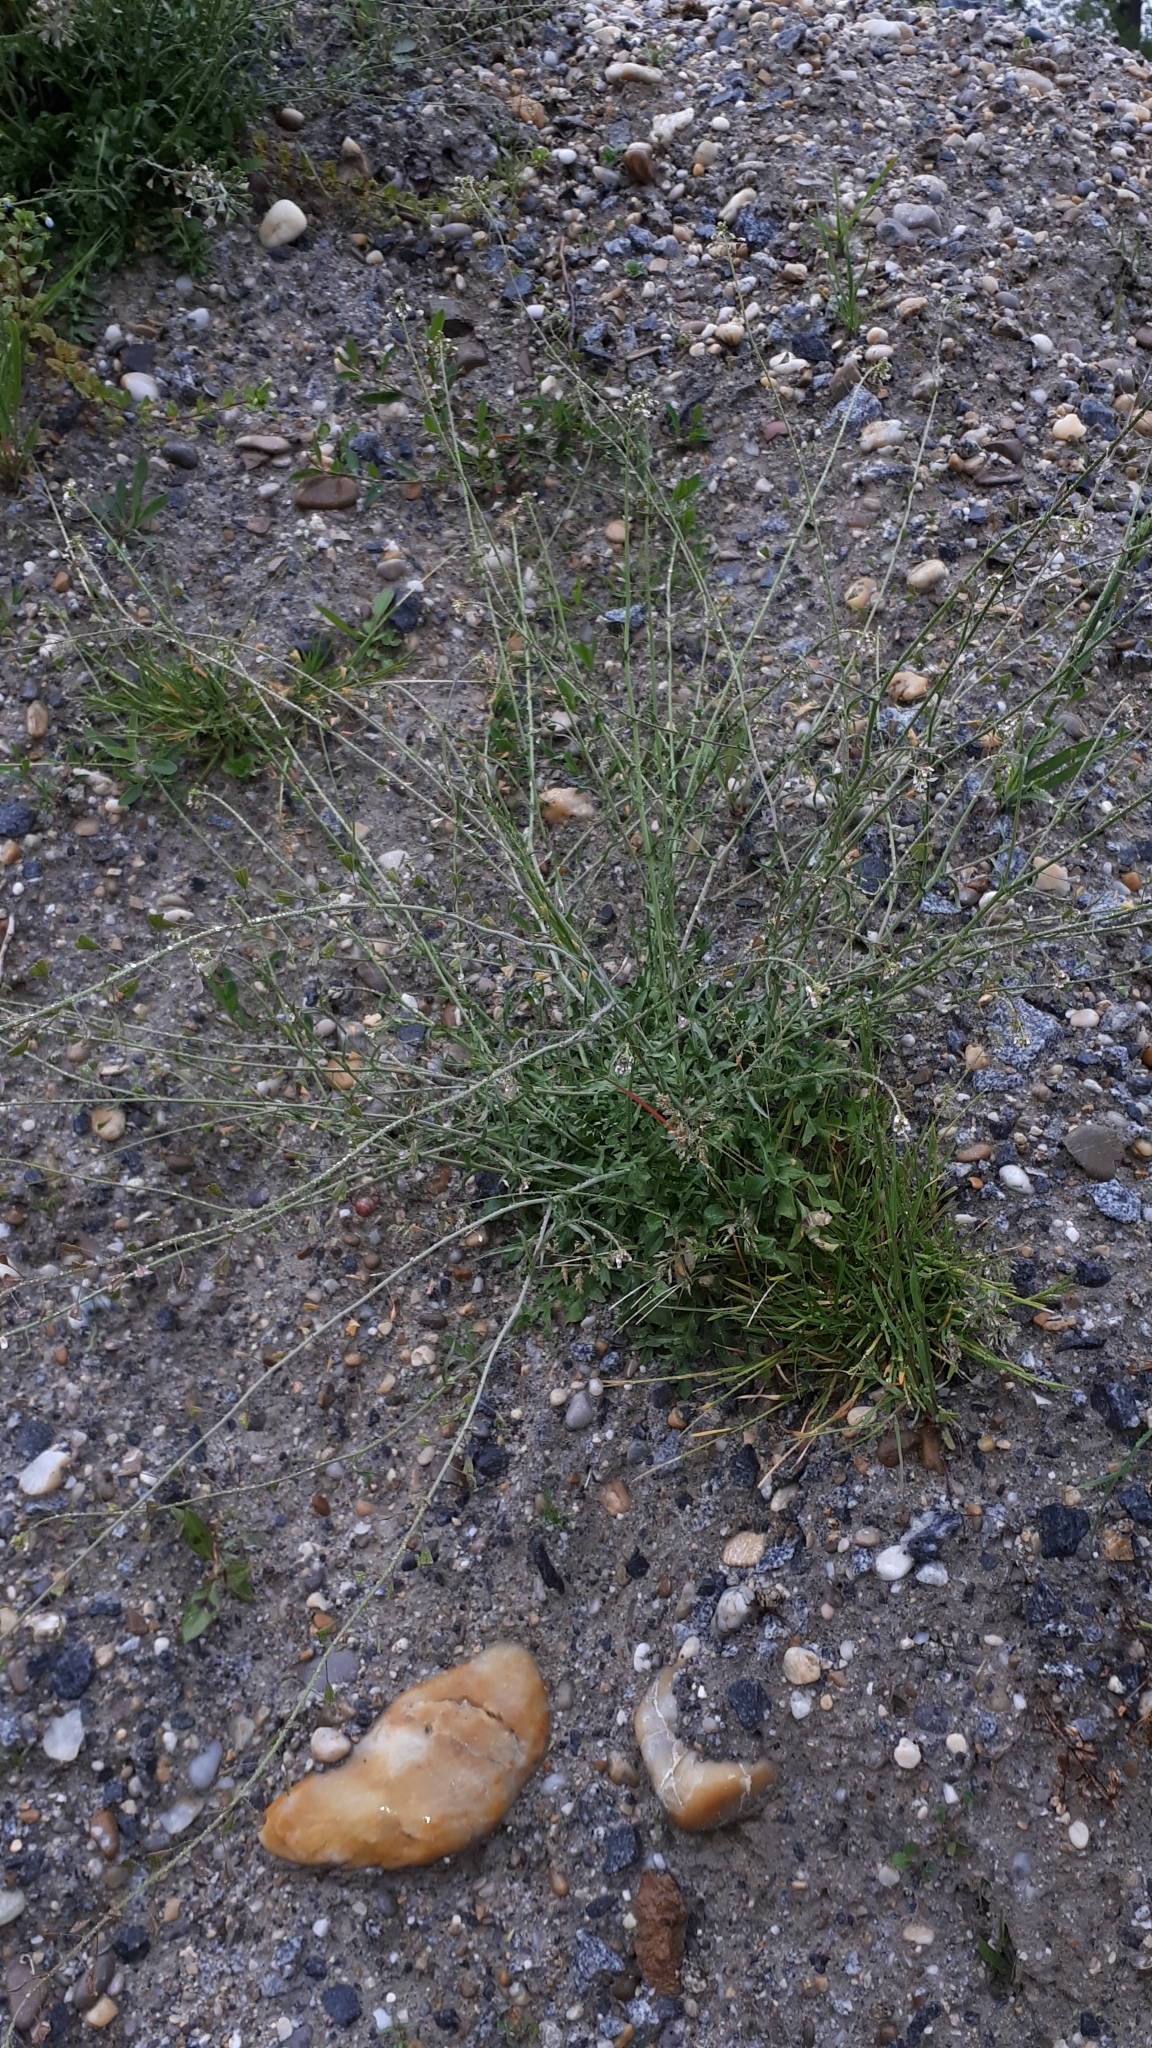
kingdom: Plantae
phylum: Tracheophyta
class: Magnoliopsida
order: Brassicales
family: Brassicaceae
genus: Capsella
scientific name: Capsella bursa-pastoris
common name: Shepherd's purse
